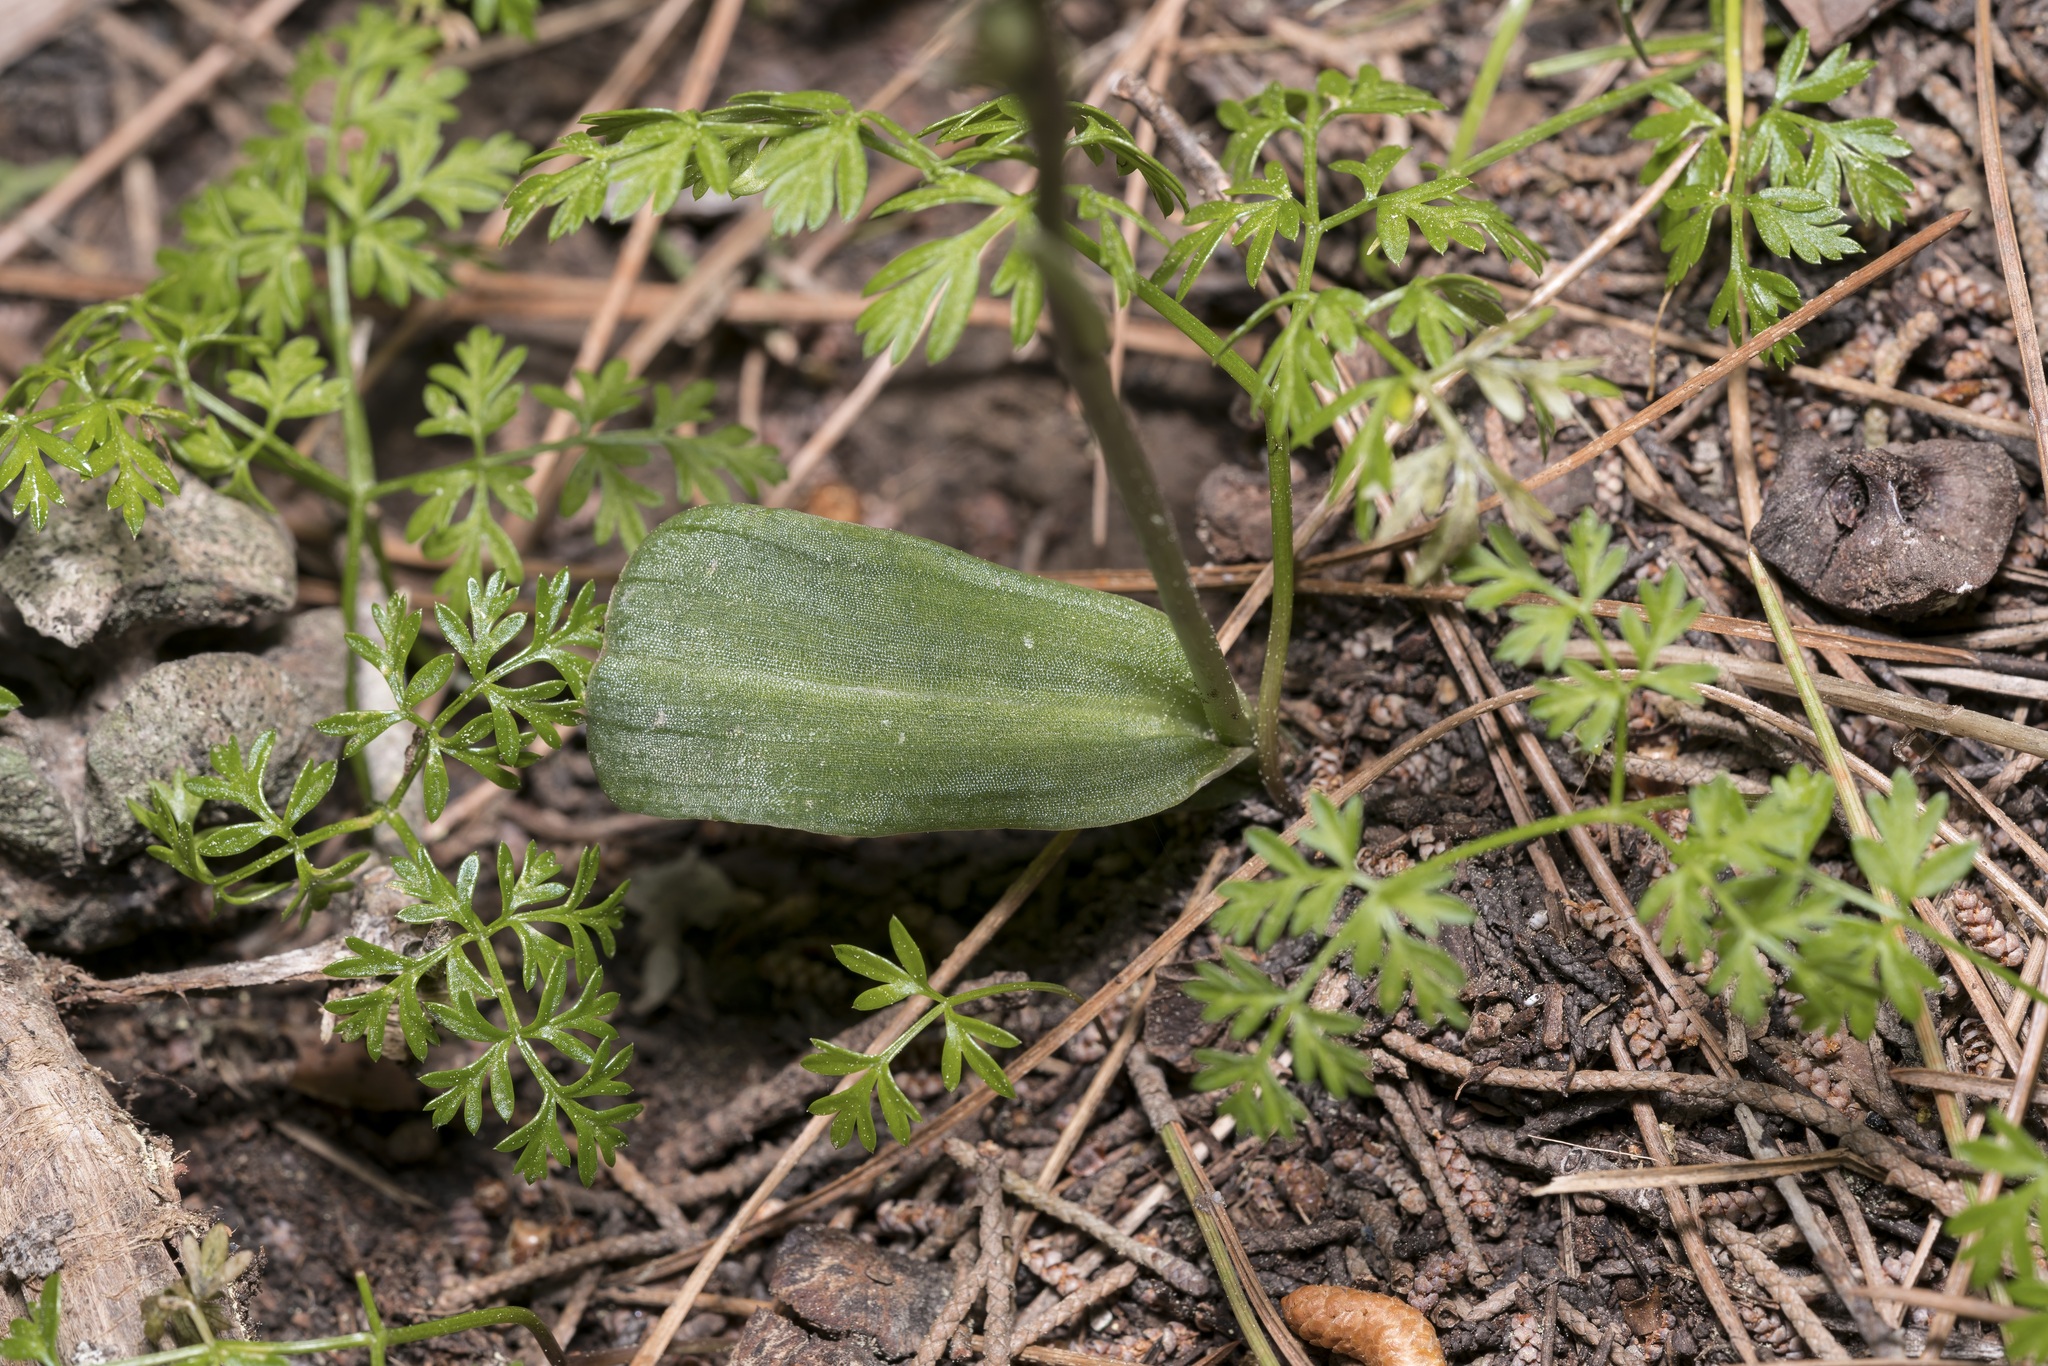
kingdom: Plantae
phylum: Tracheophyta
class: Liliopsida
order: Asparagales
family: Orchidaceae
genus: Neotinea
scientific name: Neotinea maculata
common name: Dense-flowered orchid
